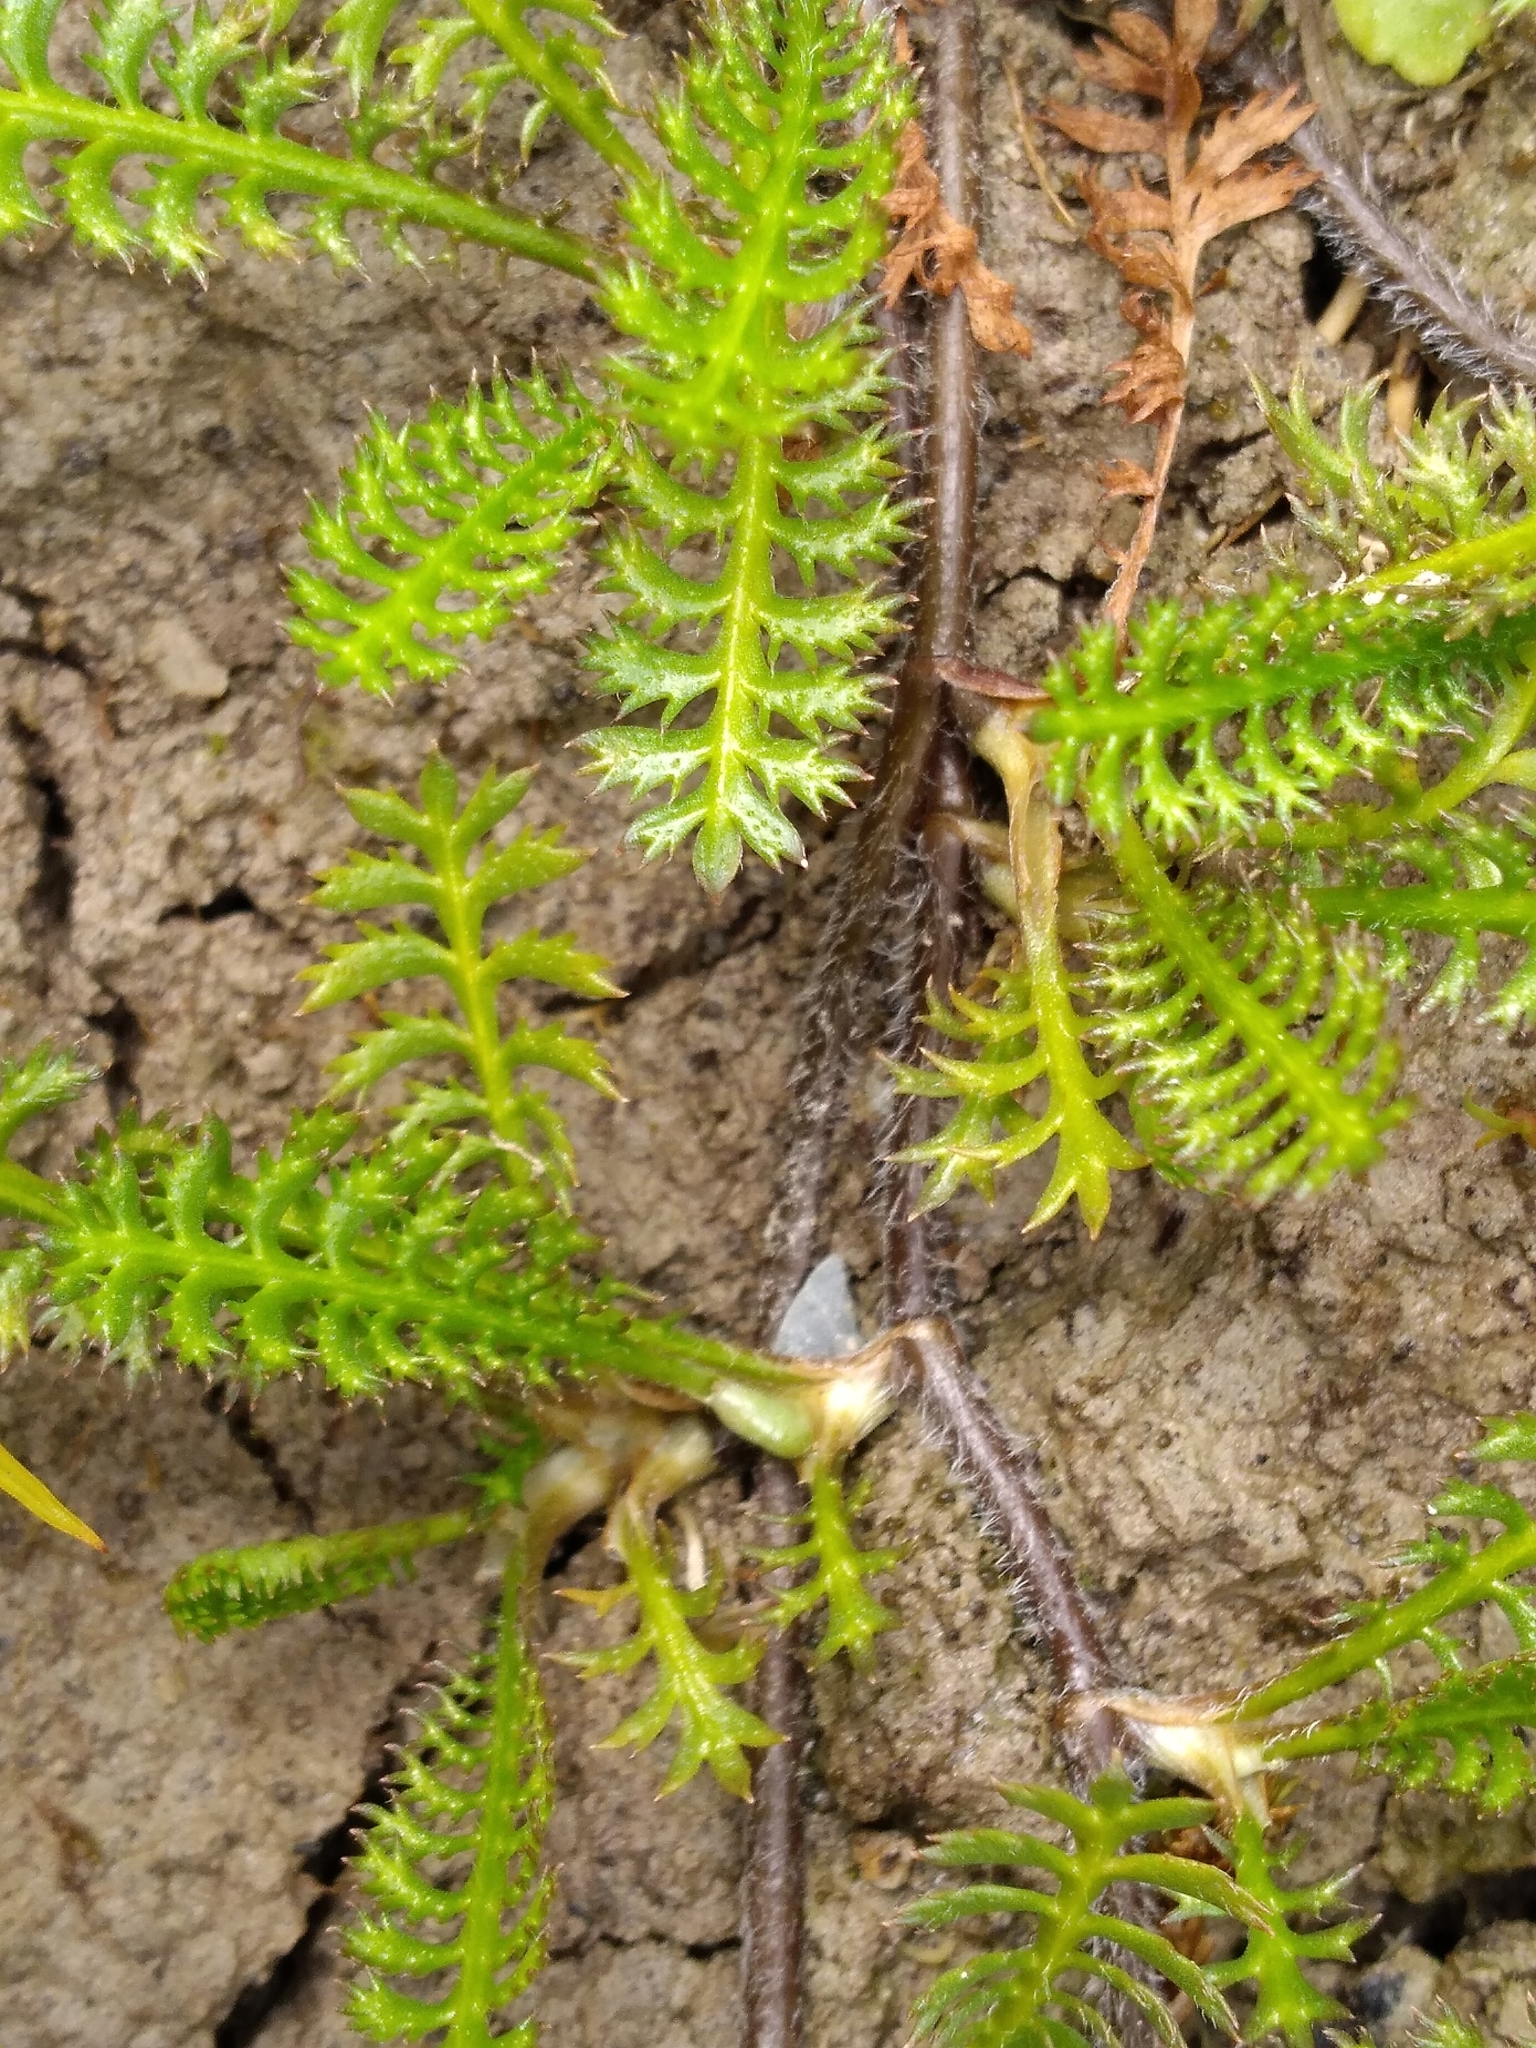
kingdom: Plantae
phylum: Tracheophyta
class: Magnoliopsida
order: Asterales
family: Asteraceae
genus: Leptinella
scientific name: Leptinella squalida
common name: New zealand brass-buttons
